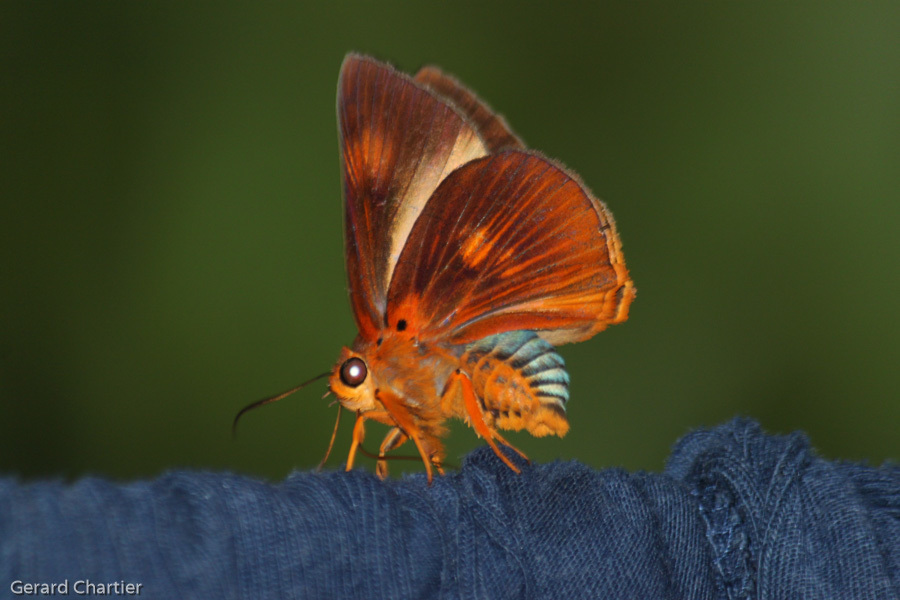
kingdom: Animalia
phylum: Arthropoda
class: Insecta
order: Lepidoptera
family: Hesperiidae
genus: Bibasis
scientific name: Bibasis etelka
